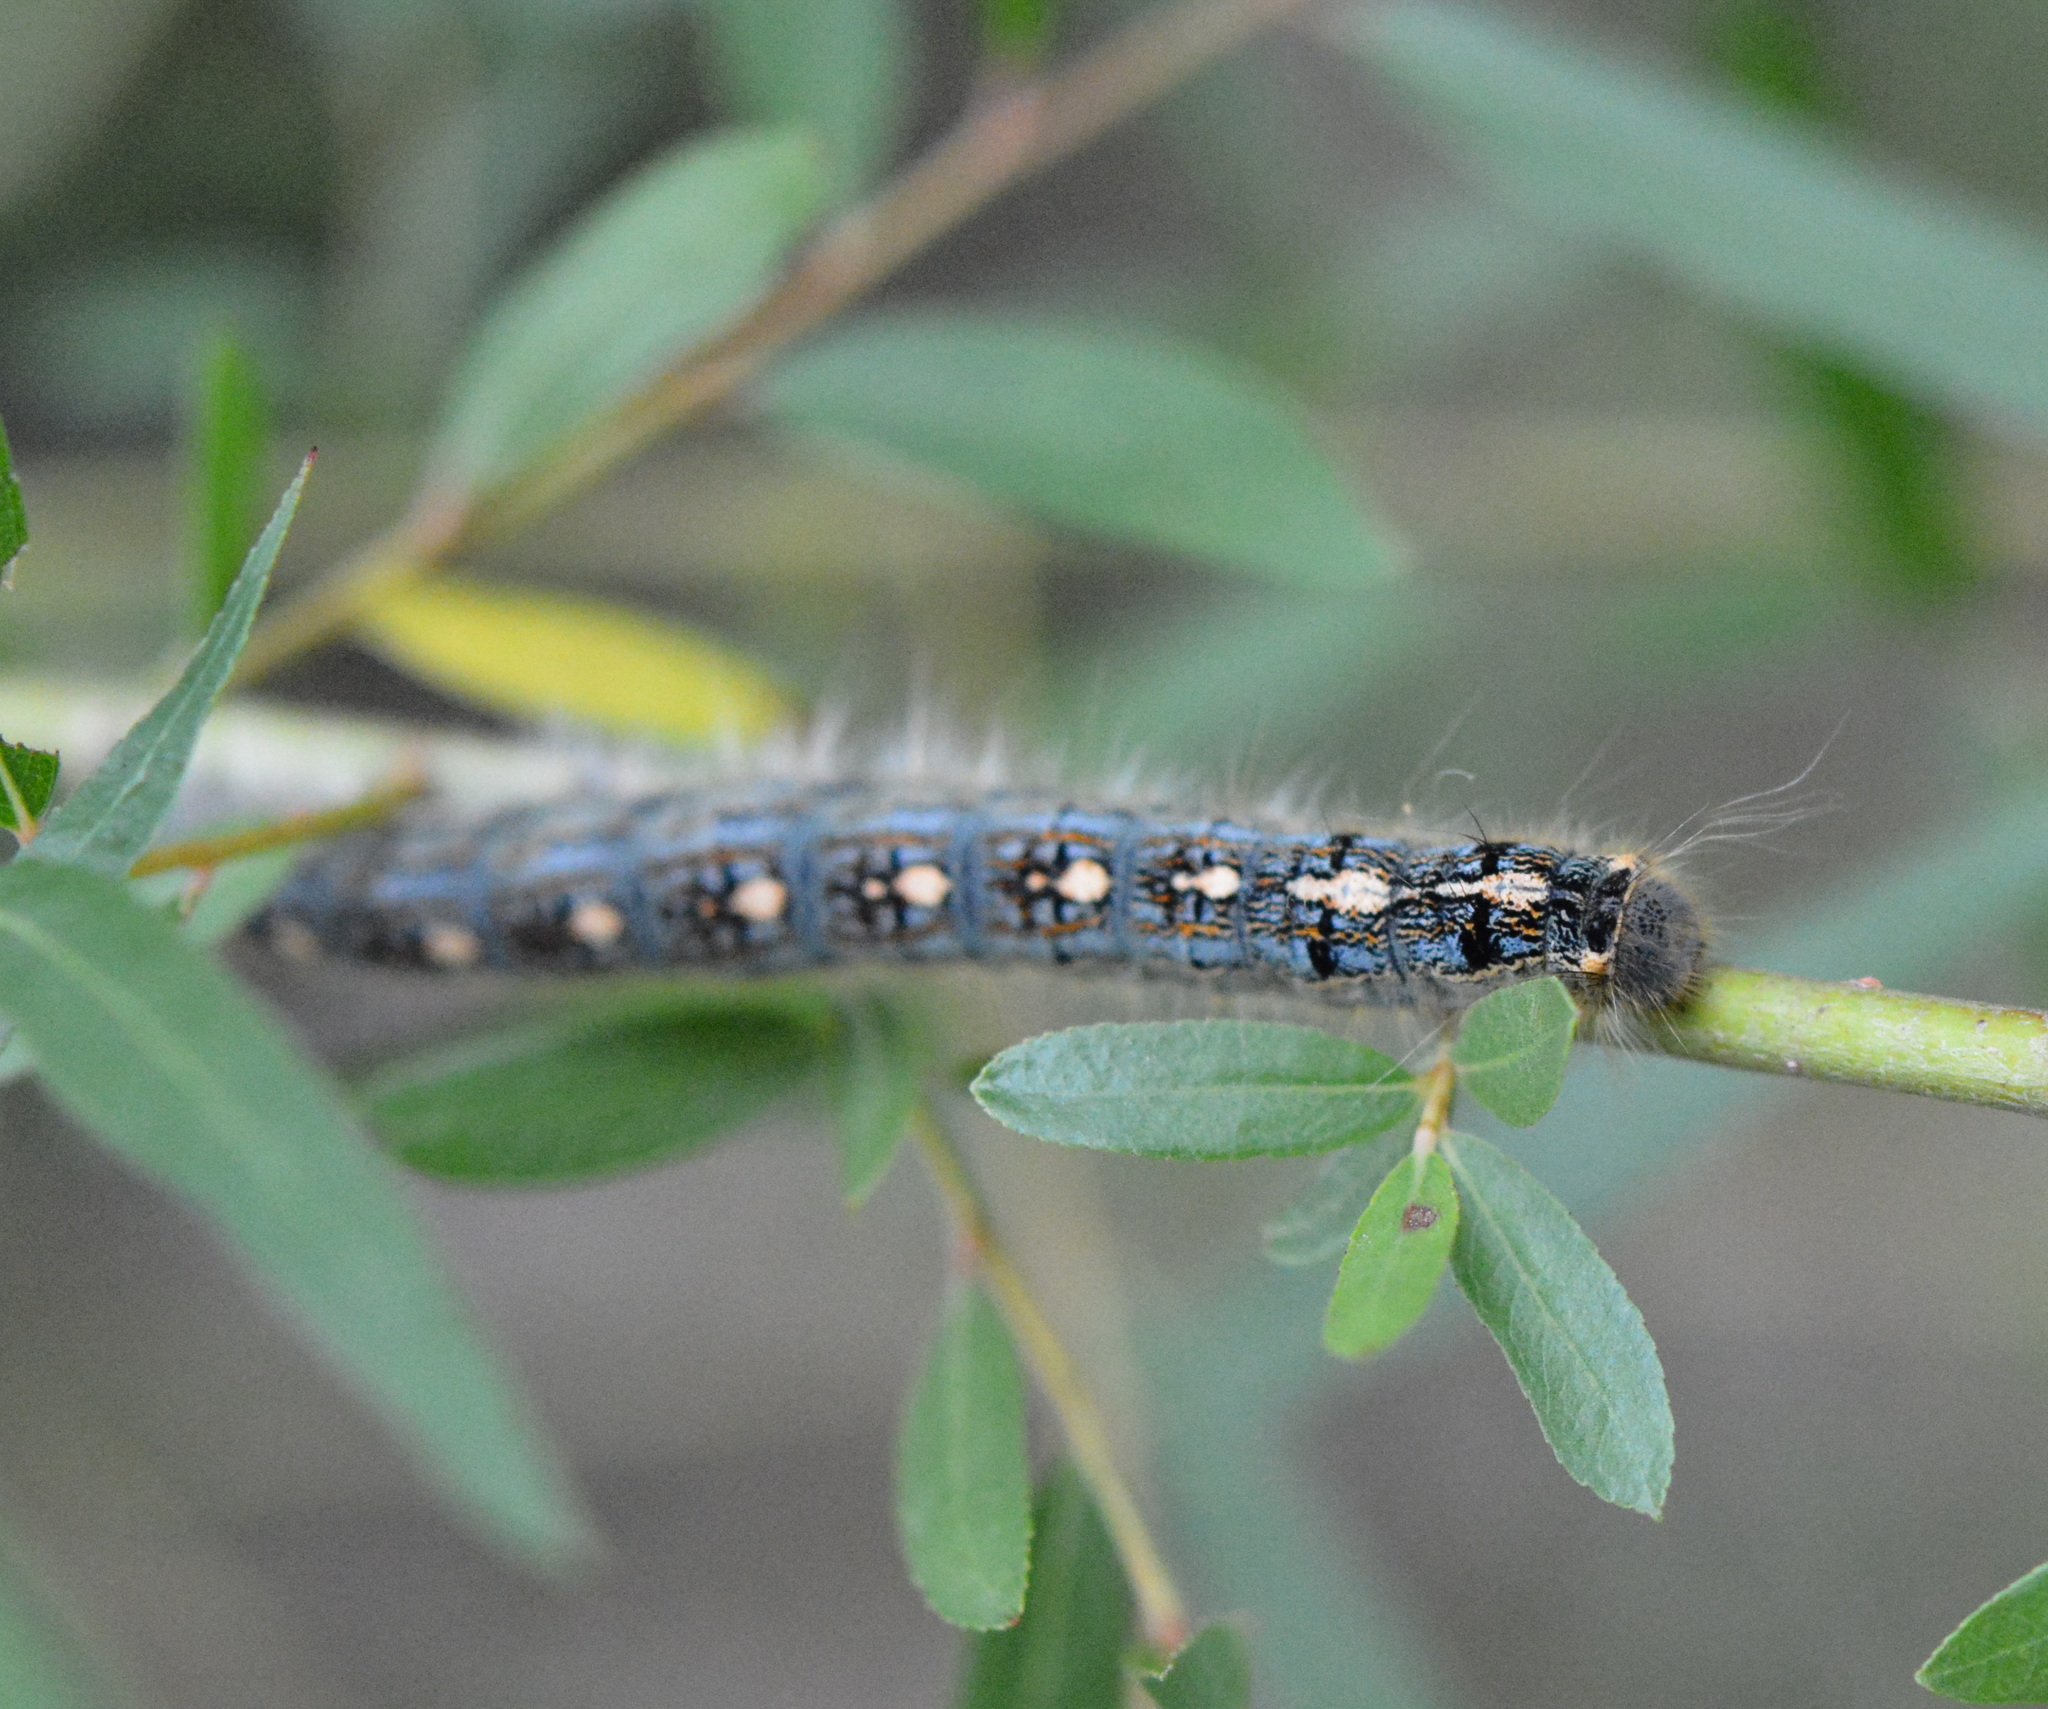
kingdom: Animalia
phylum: Arthropoda
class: Insecta
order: Lepidoptera
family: Lasiocampidae
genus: Malacosoma
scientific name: Malacosoma disstria
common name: Forest tent caterpillar
